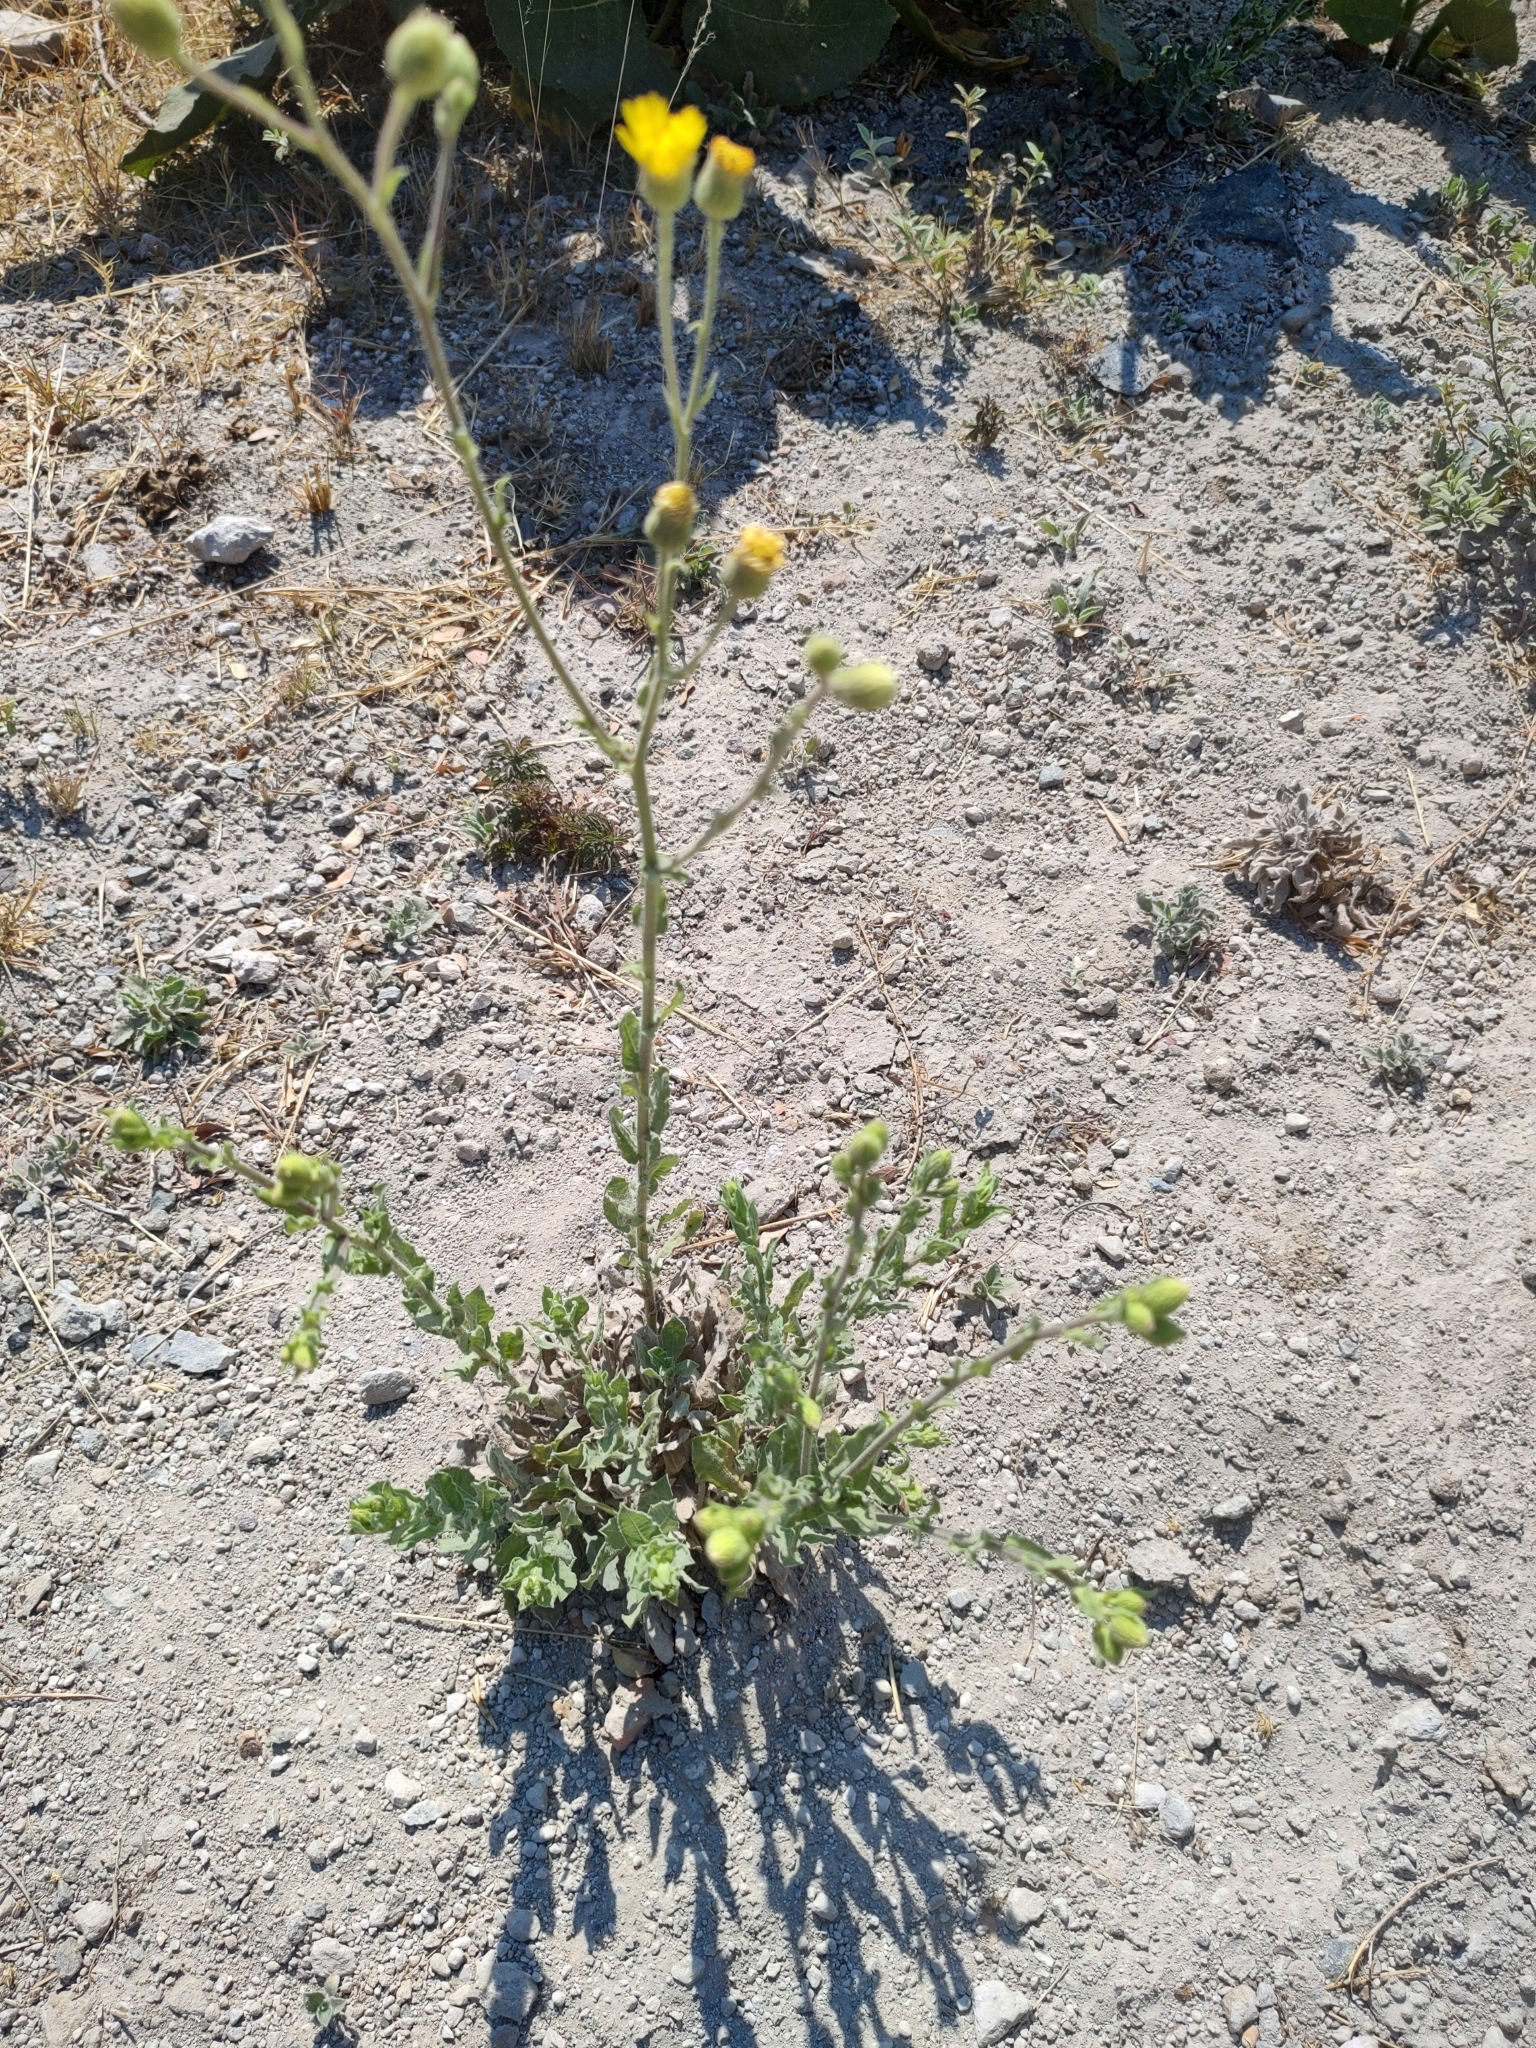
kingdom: Plantae
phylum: Tracheophyta
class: Magnoliopsida
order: Asterales
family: Asteraceae
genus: Heterotheca
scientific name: Heterotheca inuloides
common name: False arnica
